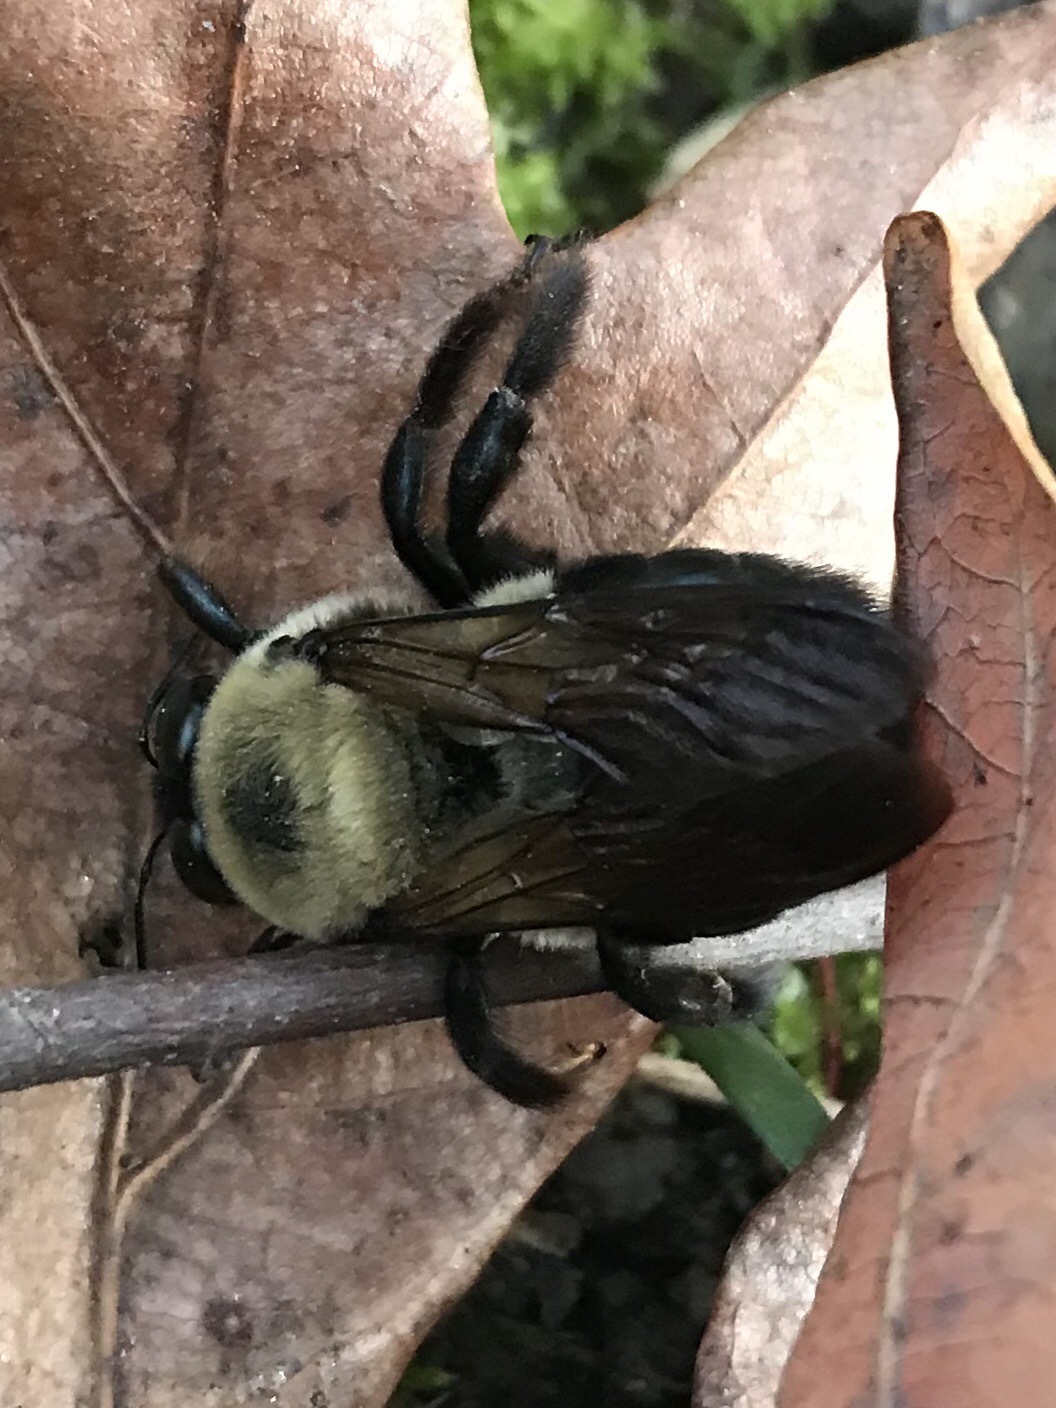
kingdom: Animalia
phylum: Arthropoda
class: Insecta
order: Hymenoptera
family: Apidae
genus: Xylocopa
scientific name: Xylocopa virginica
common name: Carpenter bee
